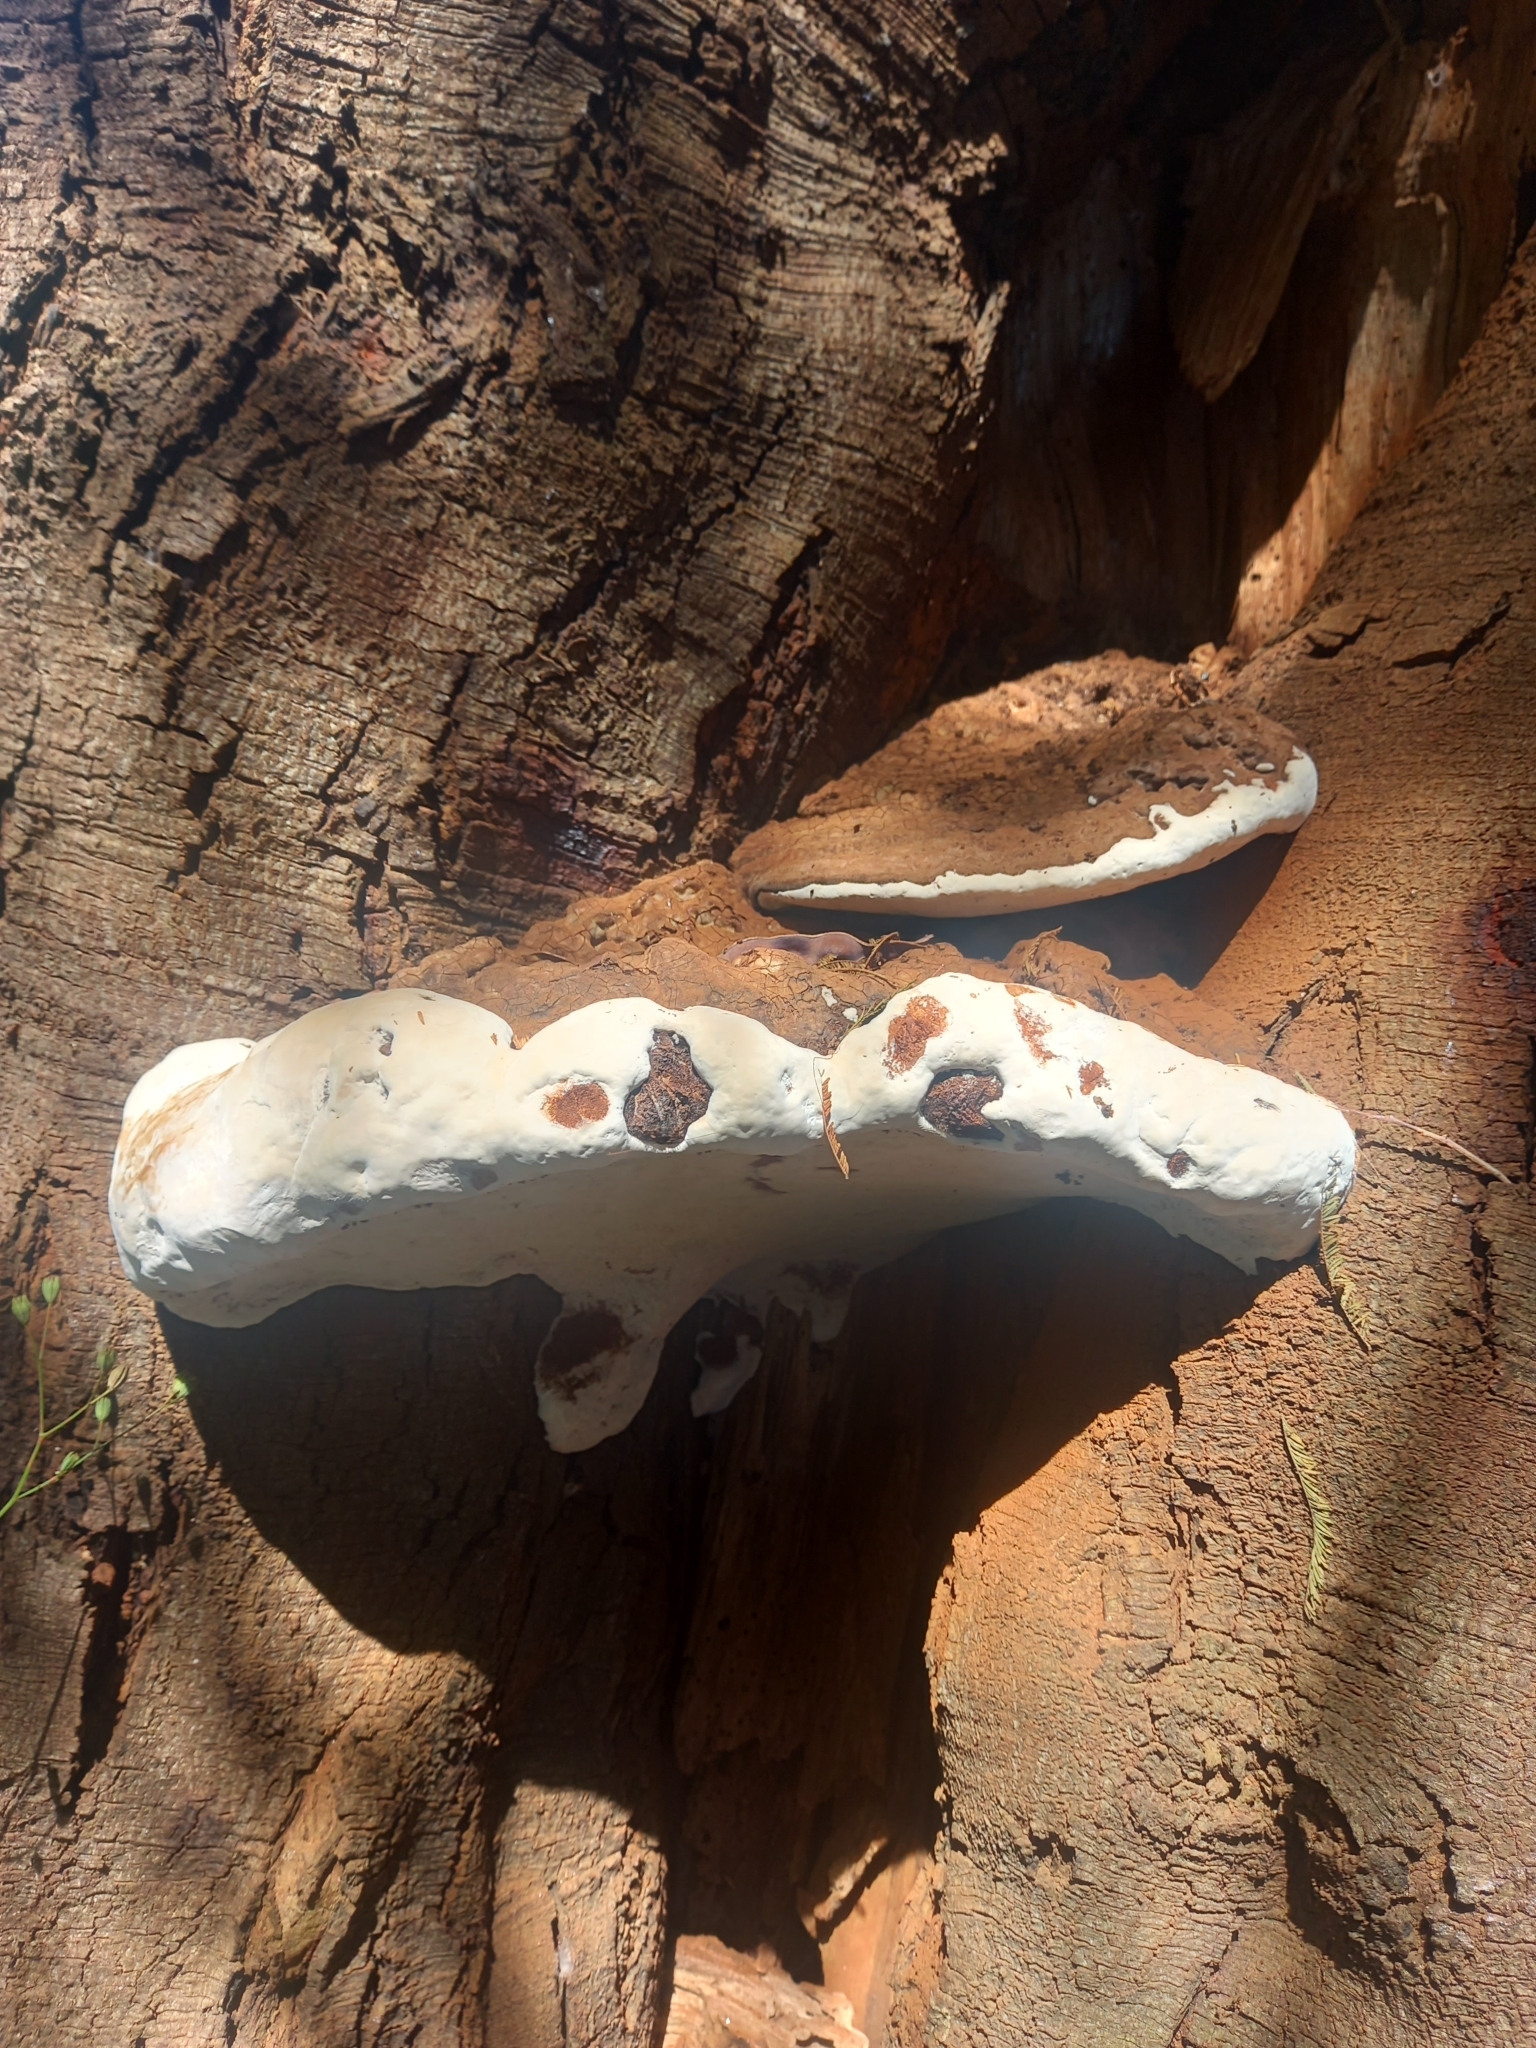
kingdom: Fungi
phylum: Basidiomycota
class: Agaricomycetes
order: Polyporales
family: Polyporaceae
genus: Ganoderma
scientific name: Ganoderma australe
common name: Southern bracket
